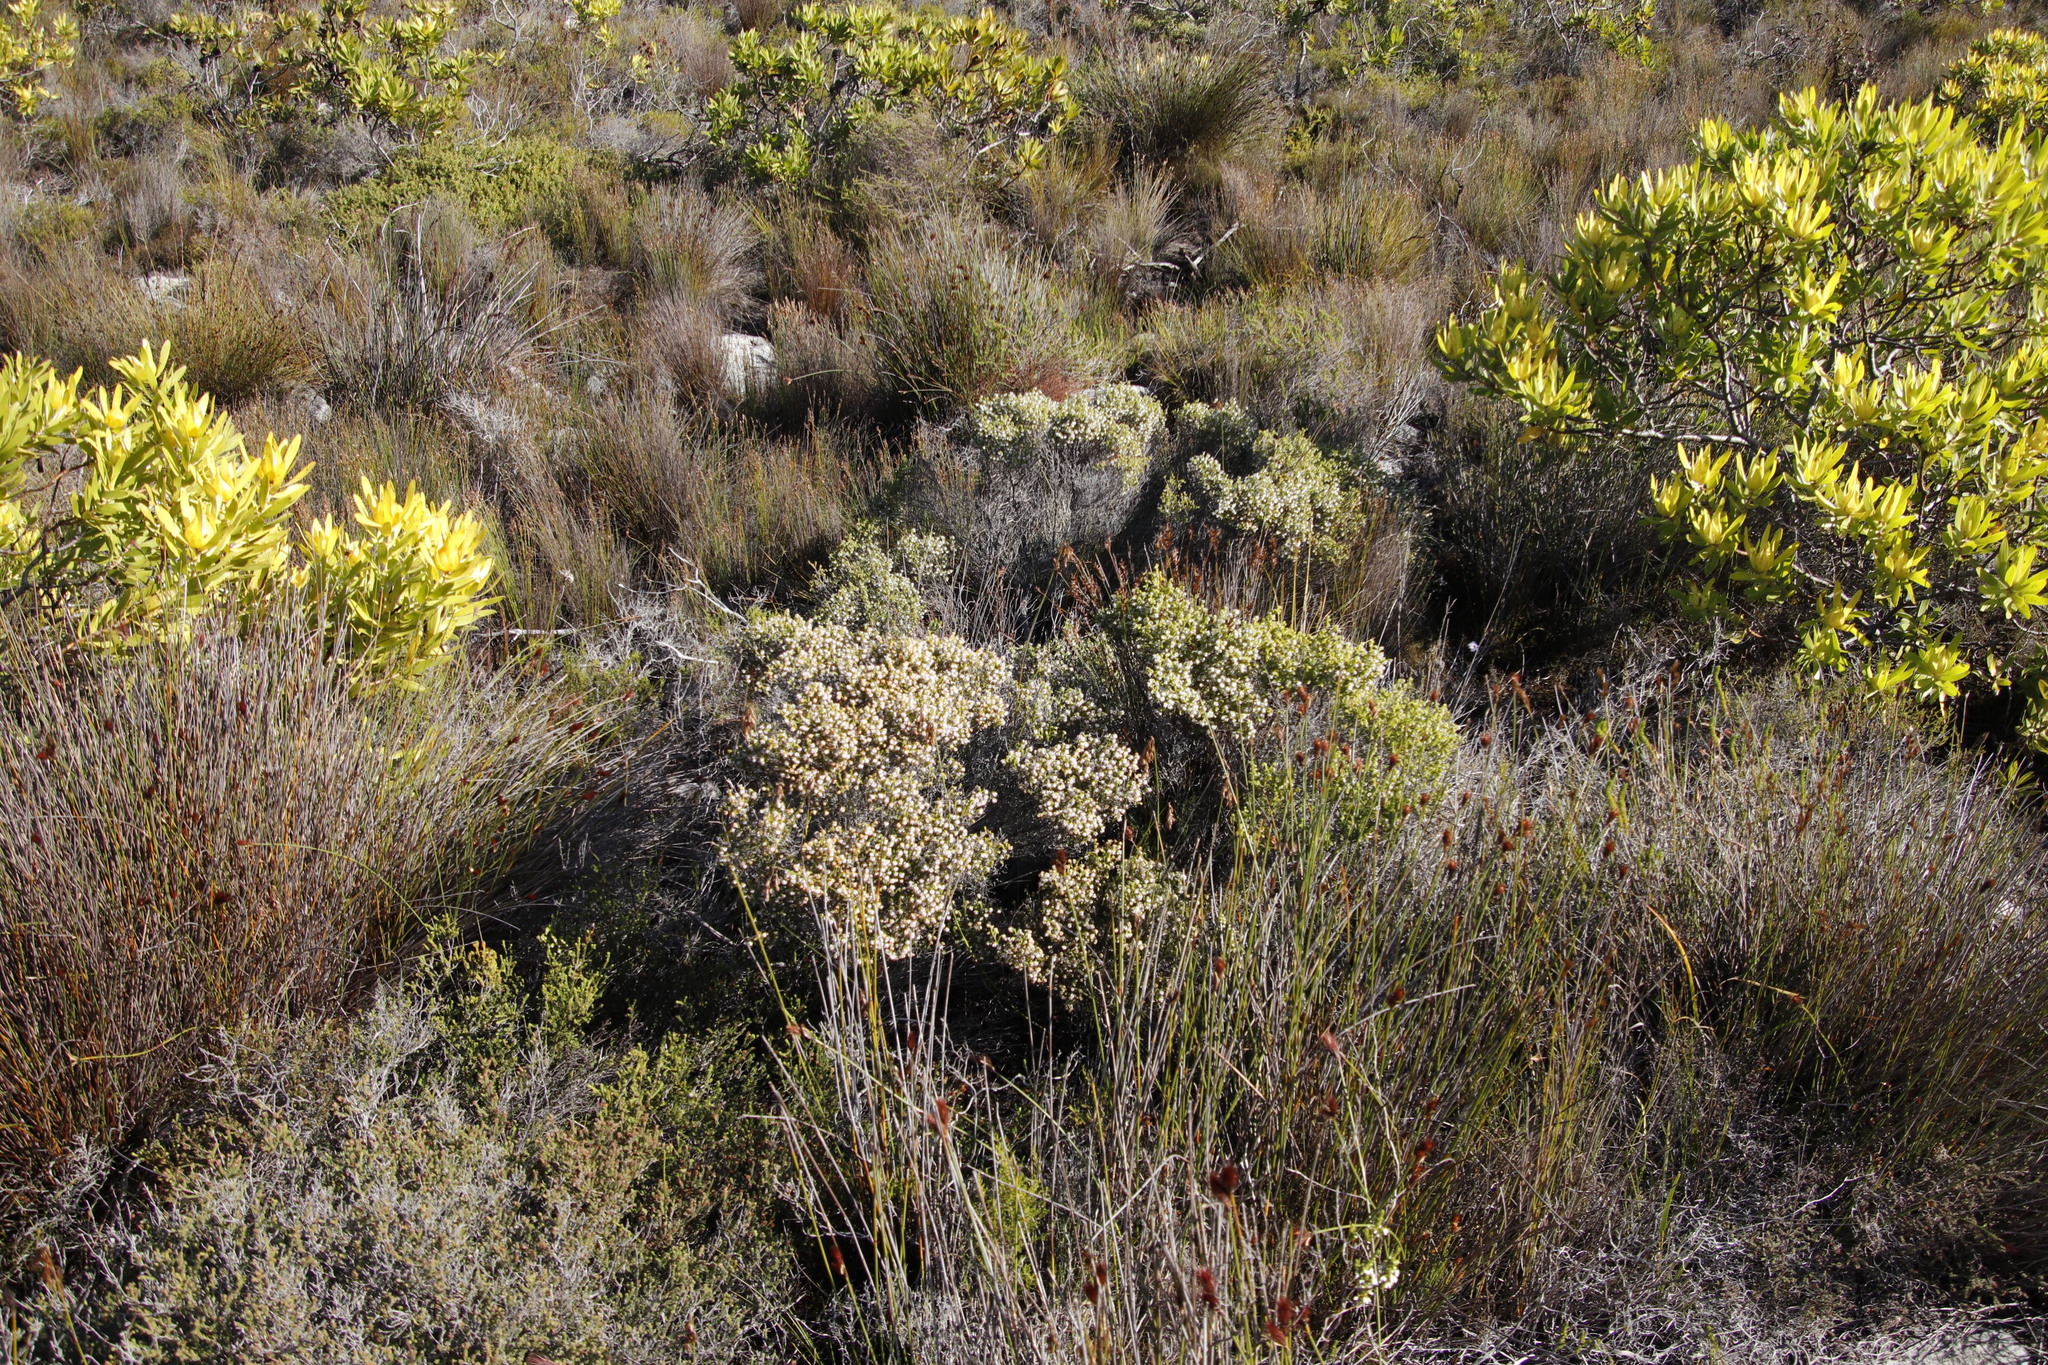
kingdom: Plantae
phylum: Tracheophyta
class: Magnoliopsida
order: Ericales
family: Ericaceae
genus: Erica
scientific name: Erica labialis
